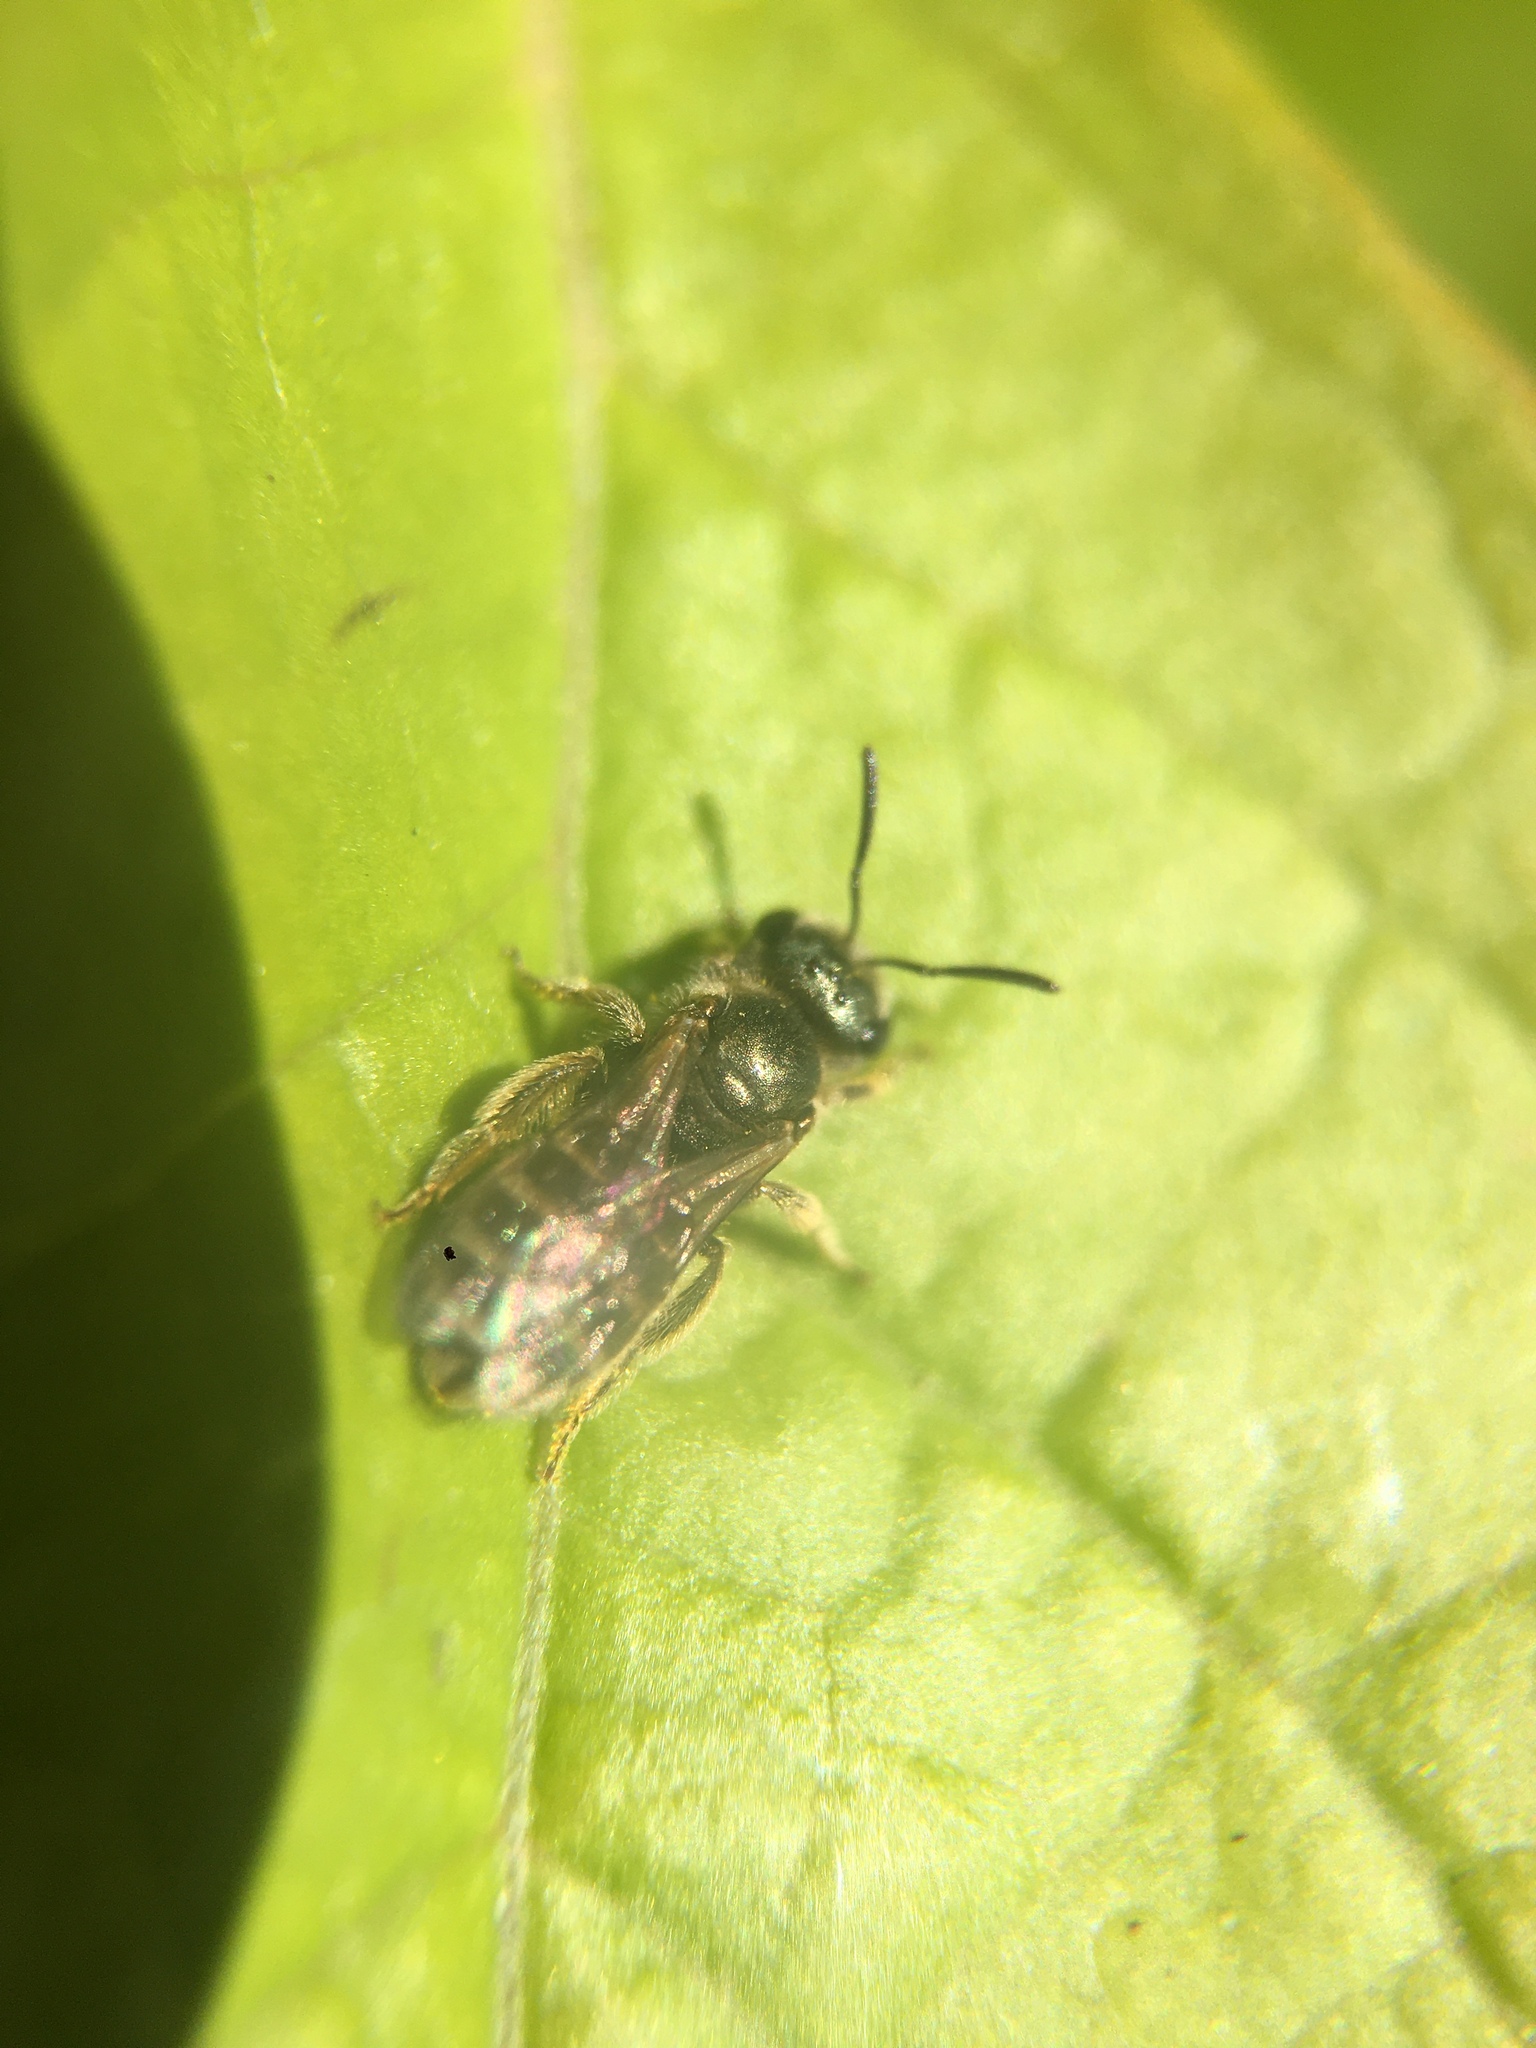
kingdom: Animalia
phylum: Arthropoda
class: Insecta
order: Hymenoptera
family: Halictidae
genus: Halictus
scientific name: Halictus tripartitus
